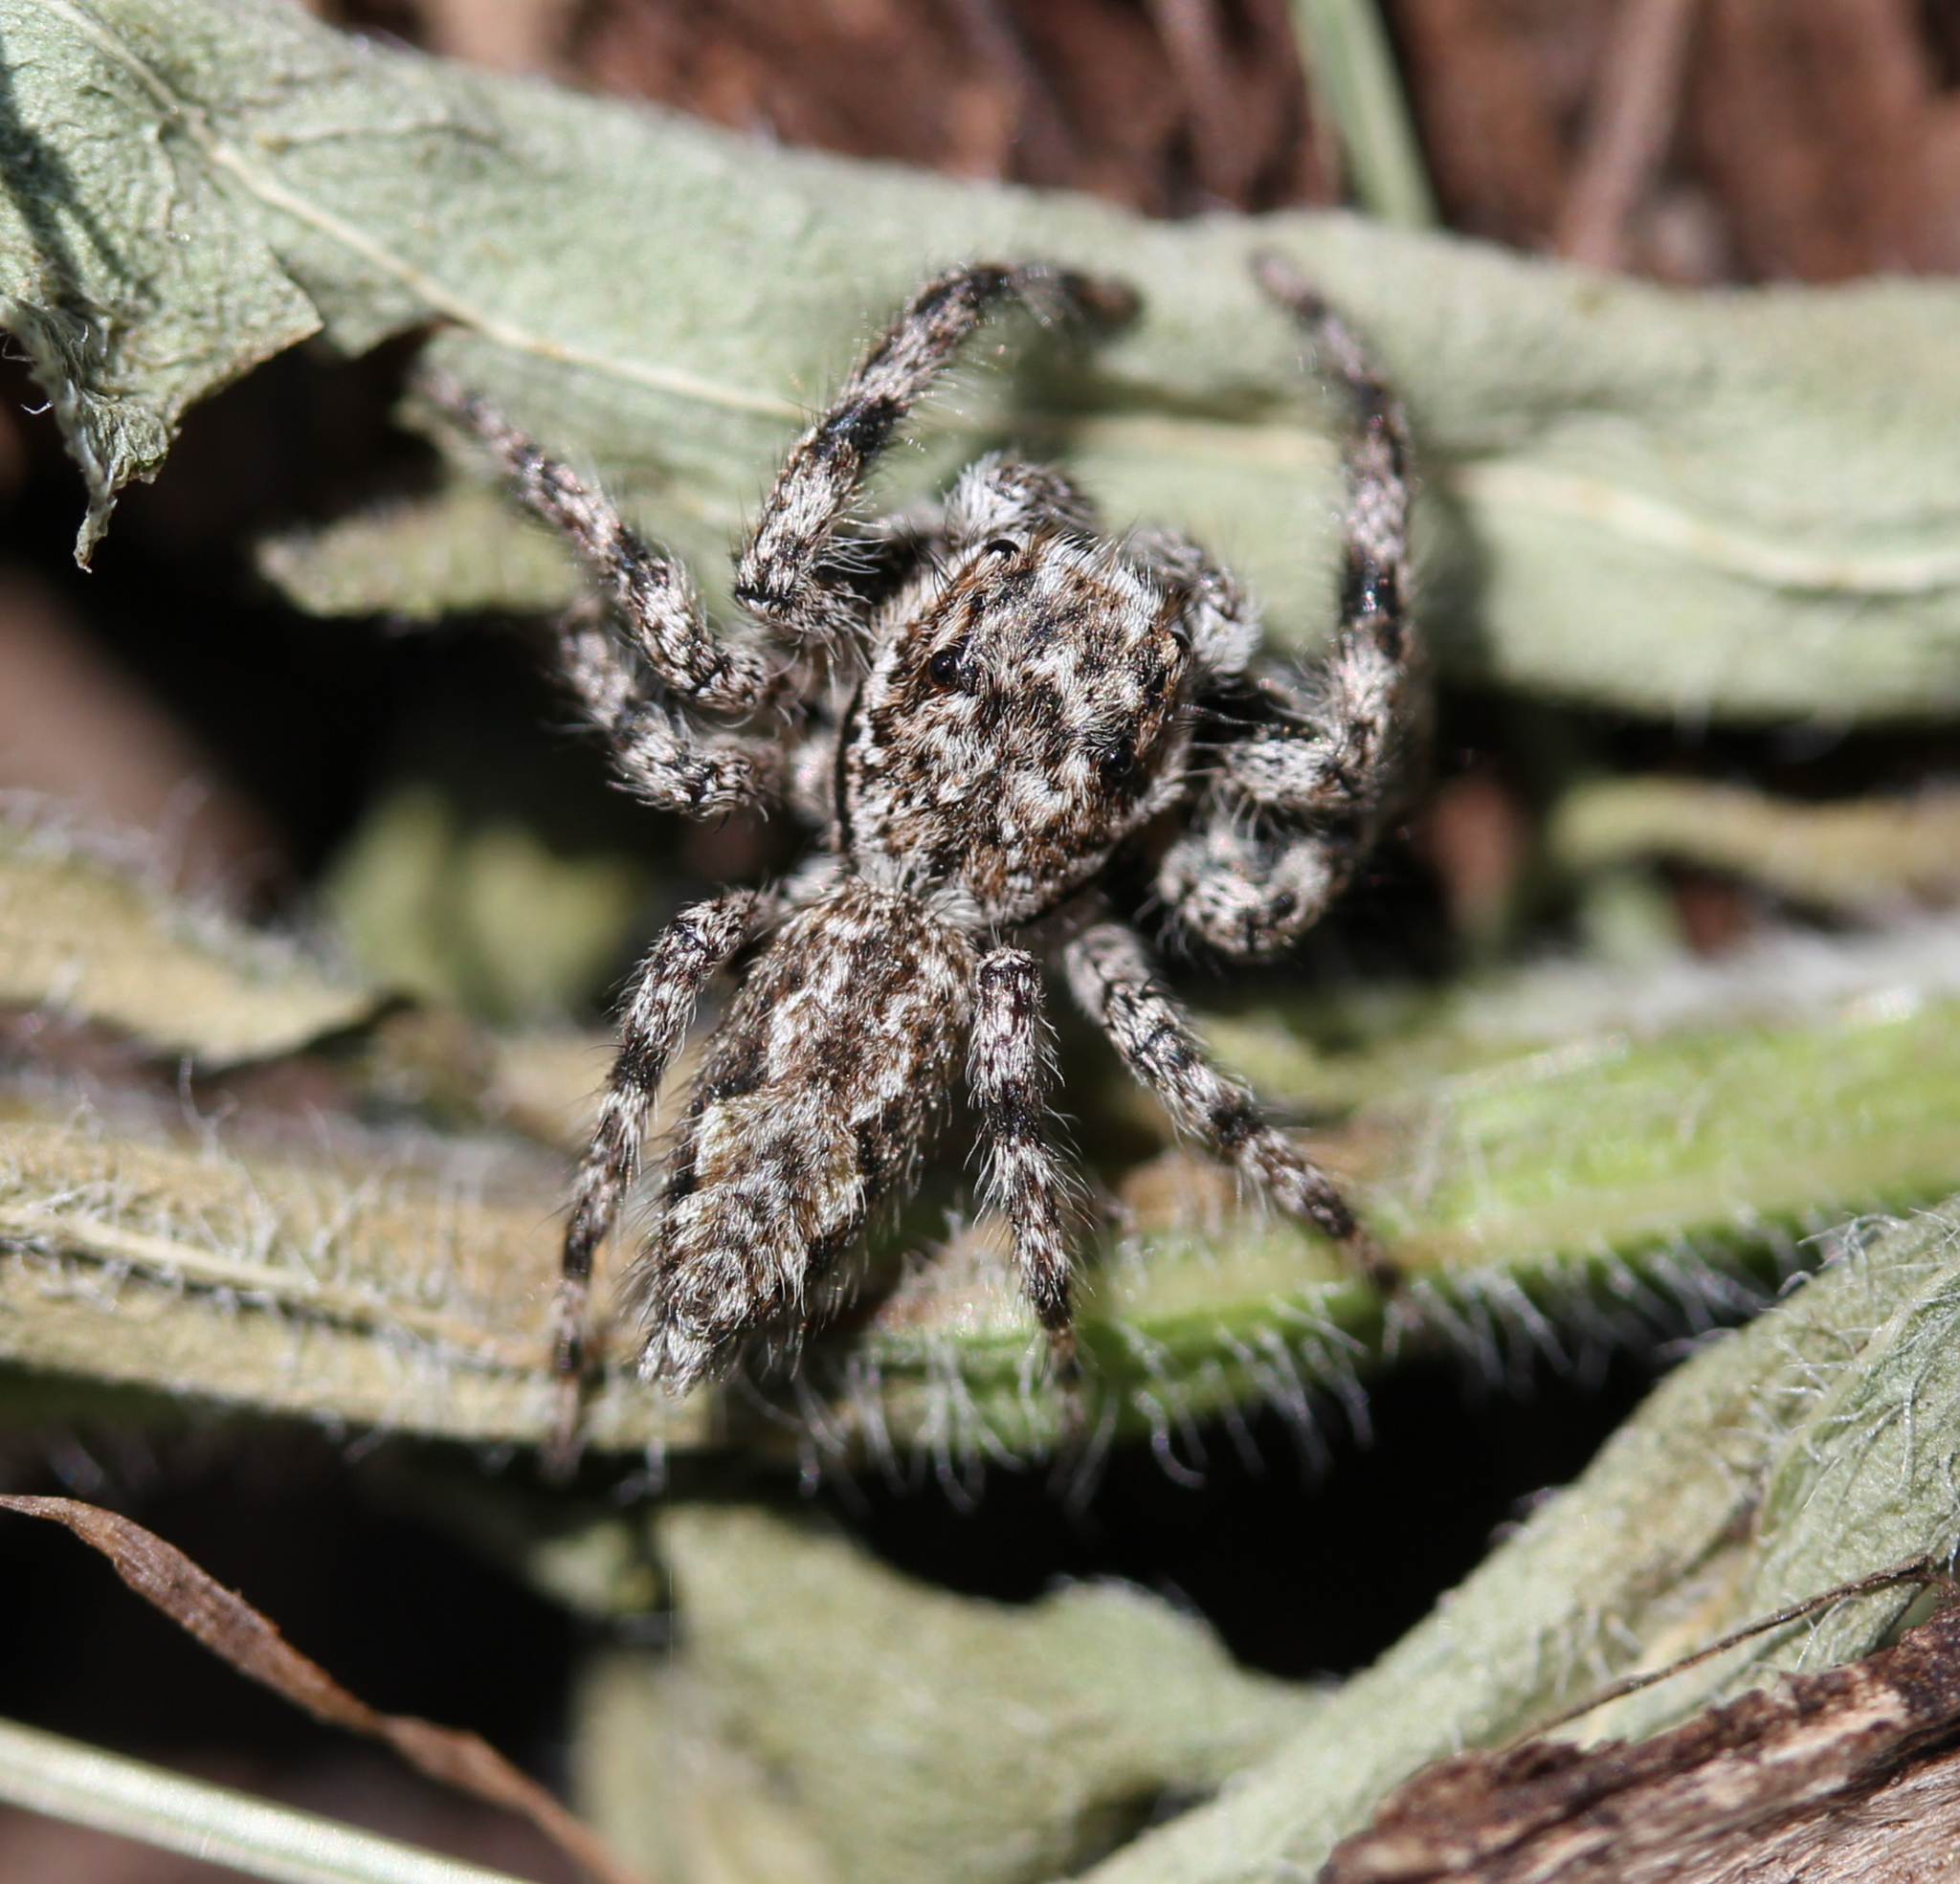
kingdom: Animalia
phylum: Arthropoda
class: Arachnida
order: Araneae
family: Salticidae
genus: Platycryptus
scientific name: Platycryptus undatus
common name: Tan jumping spider
